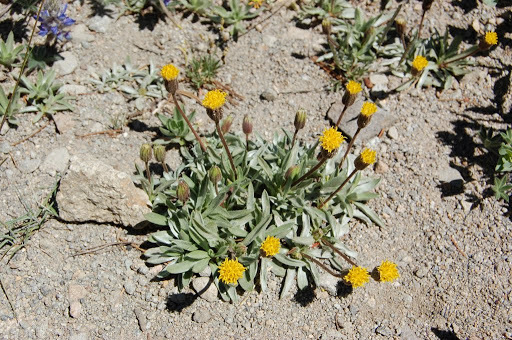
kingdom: Plantae
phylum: Tracheophyta
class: Magnoliopsida
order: Asterales
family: Asteraceae
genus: Raillardella
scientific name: Raillardella argentea
